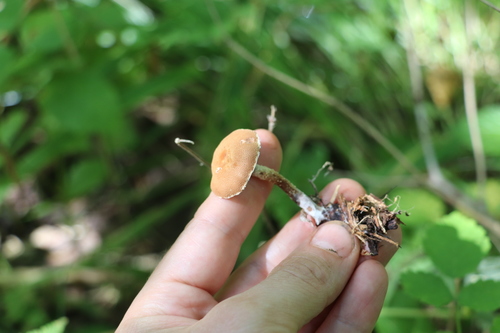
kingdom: Fungi
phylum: Basidiomycota
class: Agaricomycetes
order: Agaricales
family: Tricholomataceae
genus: Cystoderma
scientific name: Cystoderma jasonis
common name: Pine powdercap
